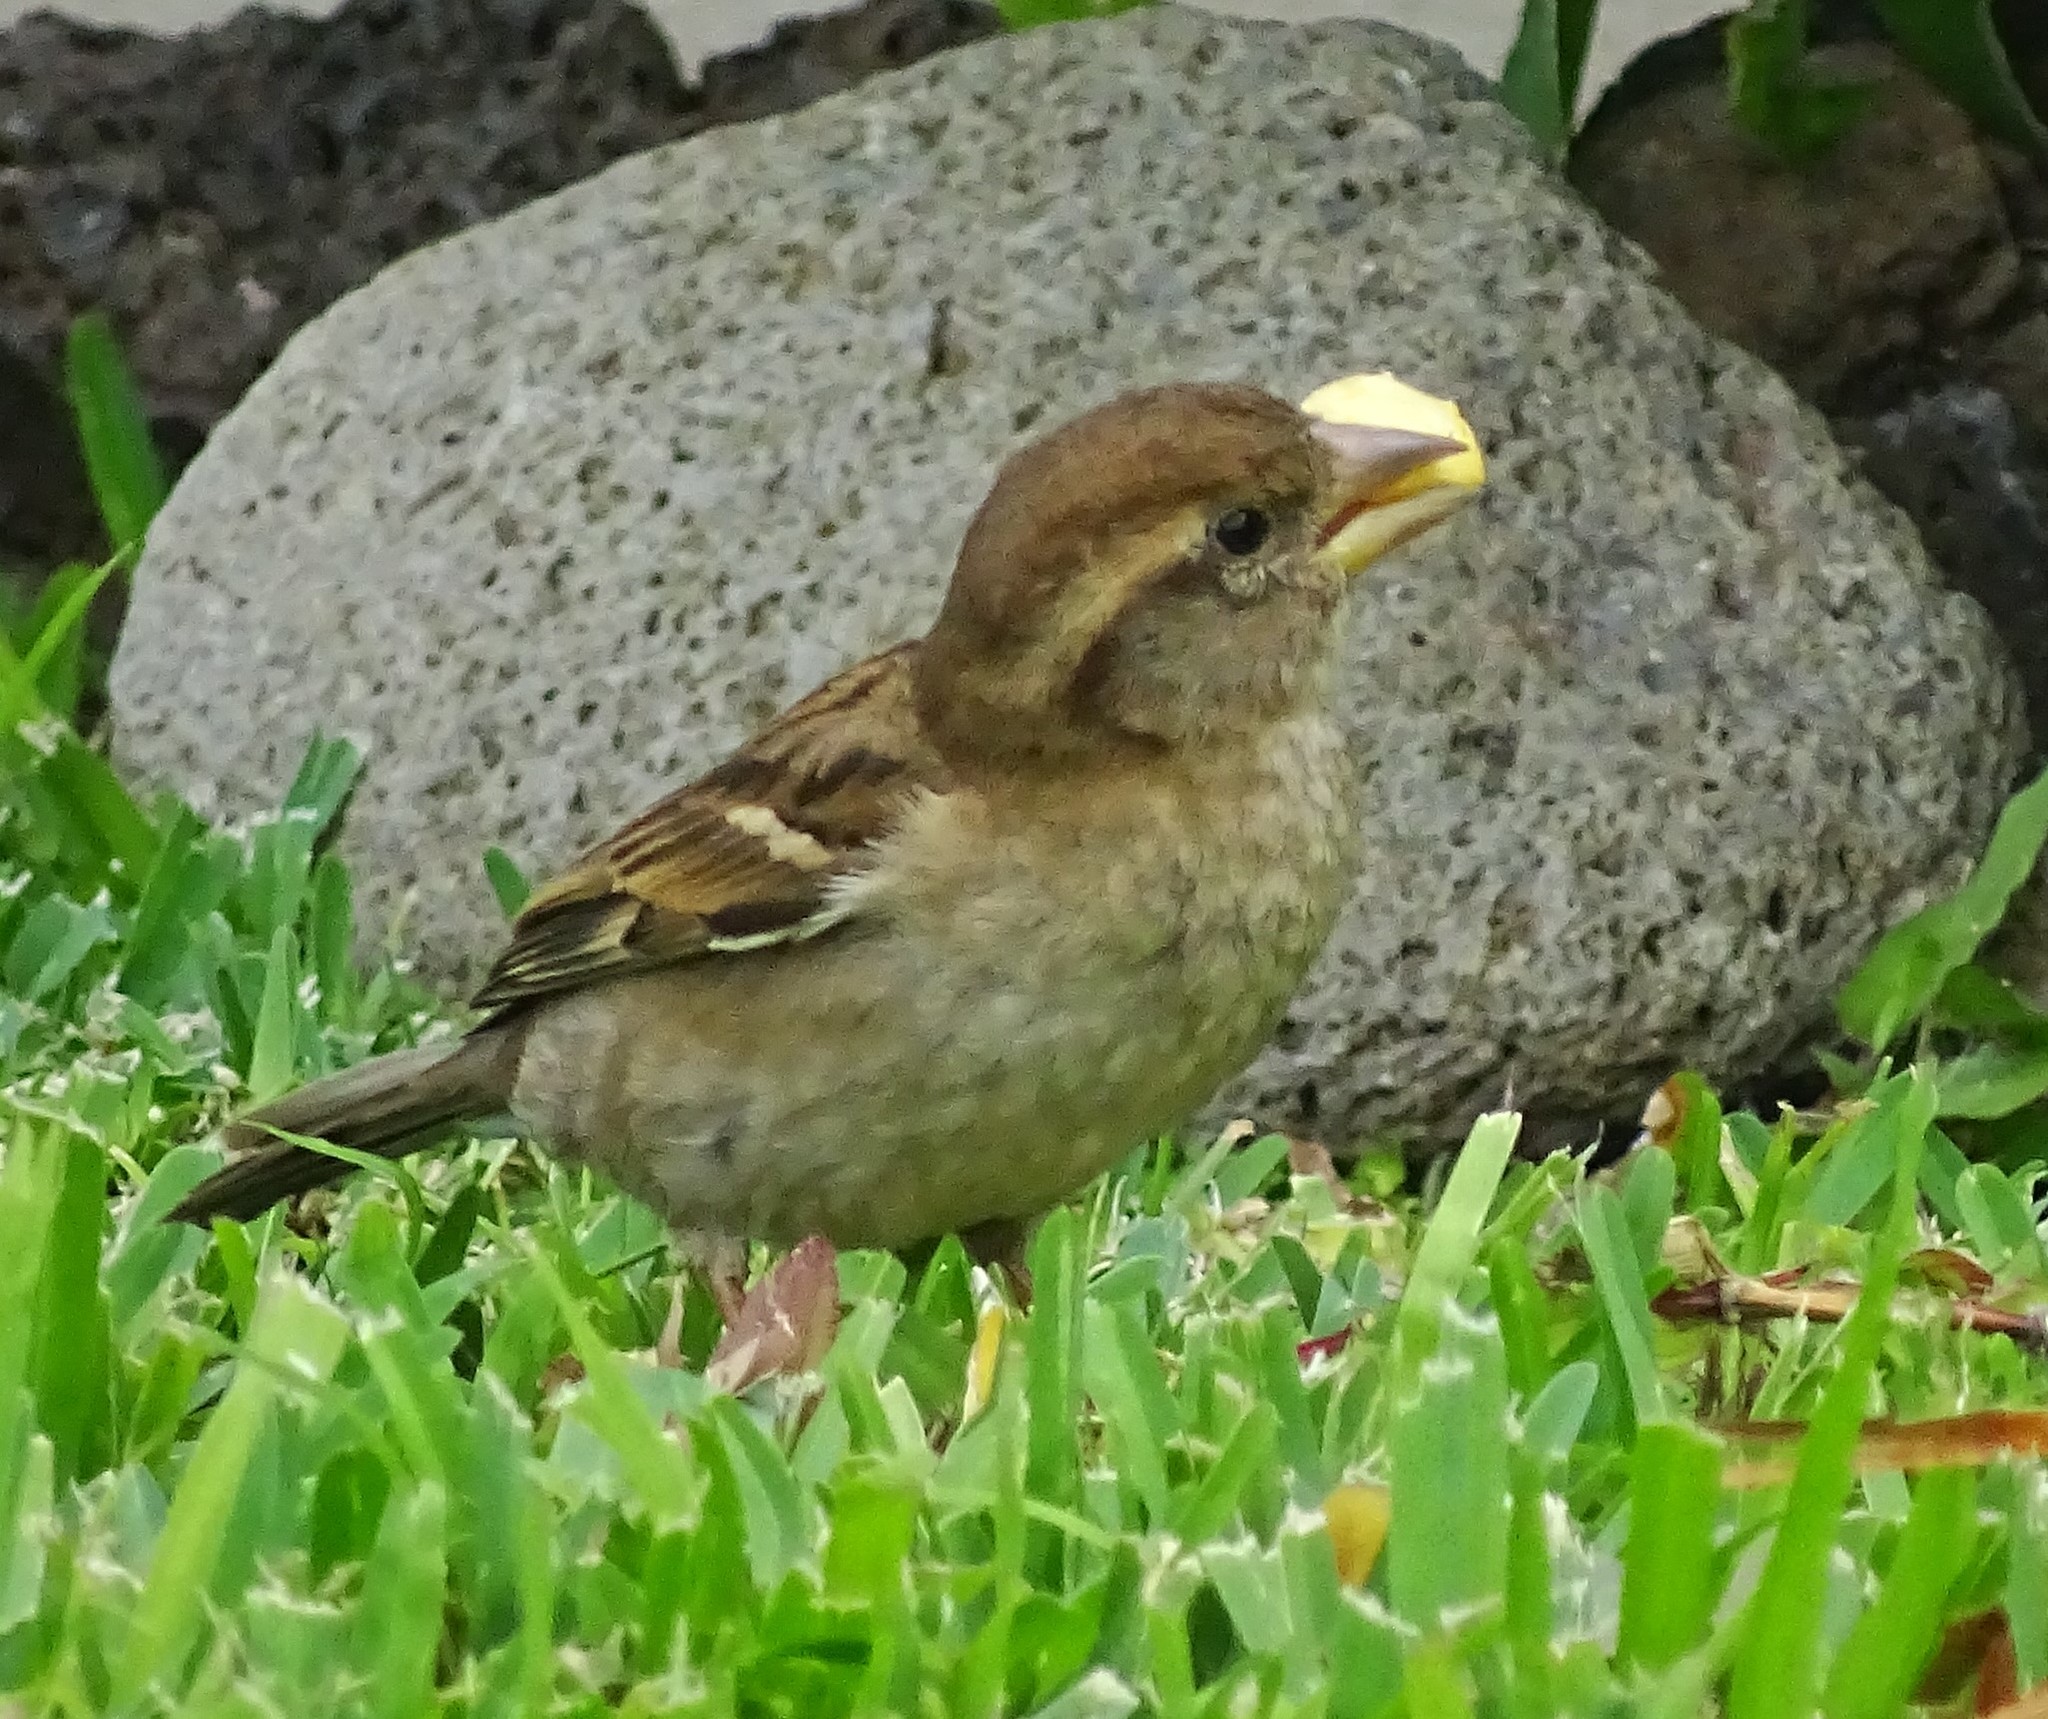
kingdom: Animalia
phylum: Chordata
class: Aves
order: Passeriformes
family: Passeridae
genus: Passer
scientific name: Passer domesticus
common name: House sparrow
